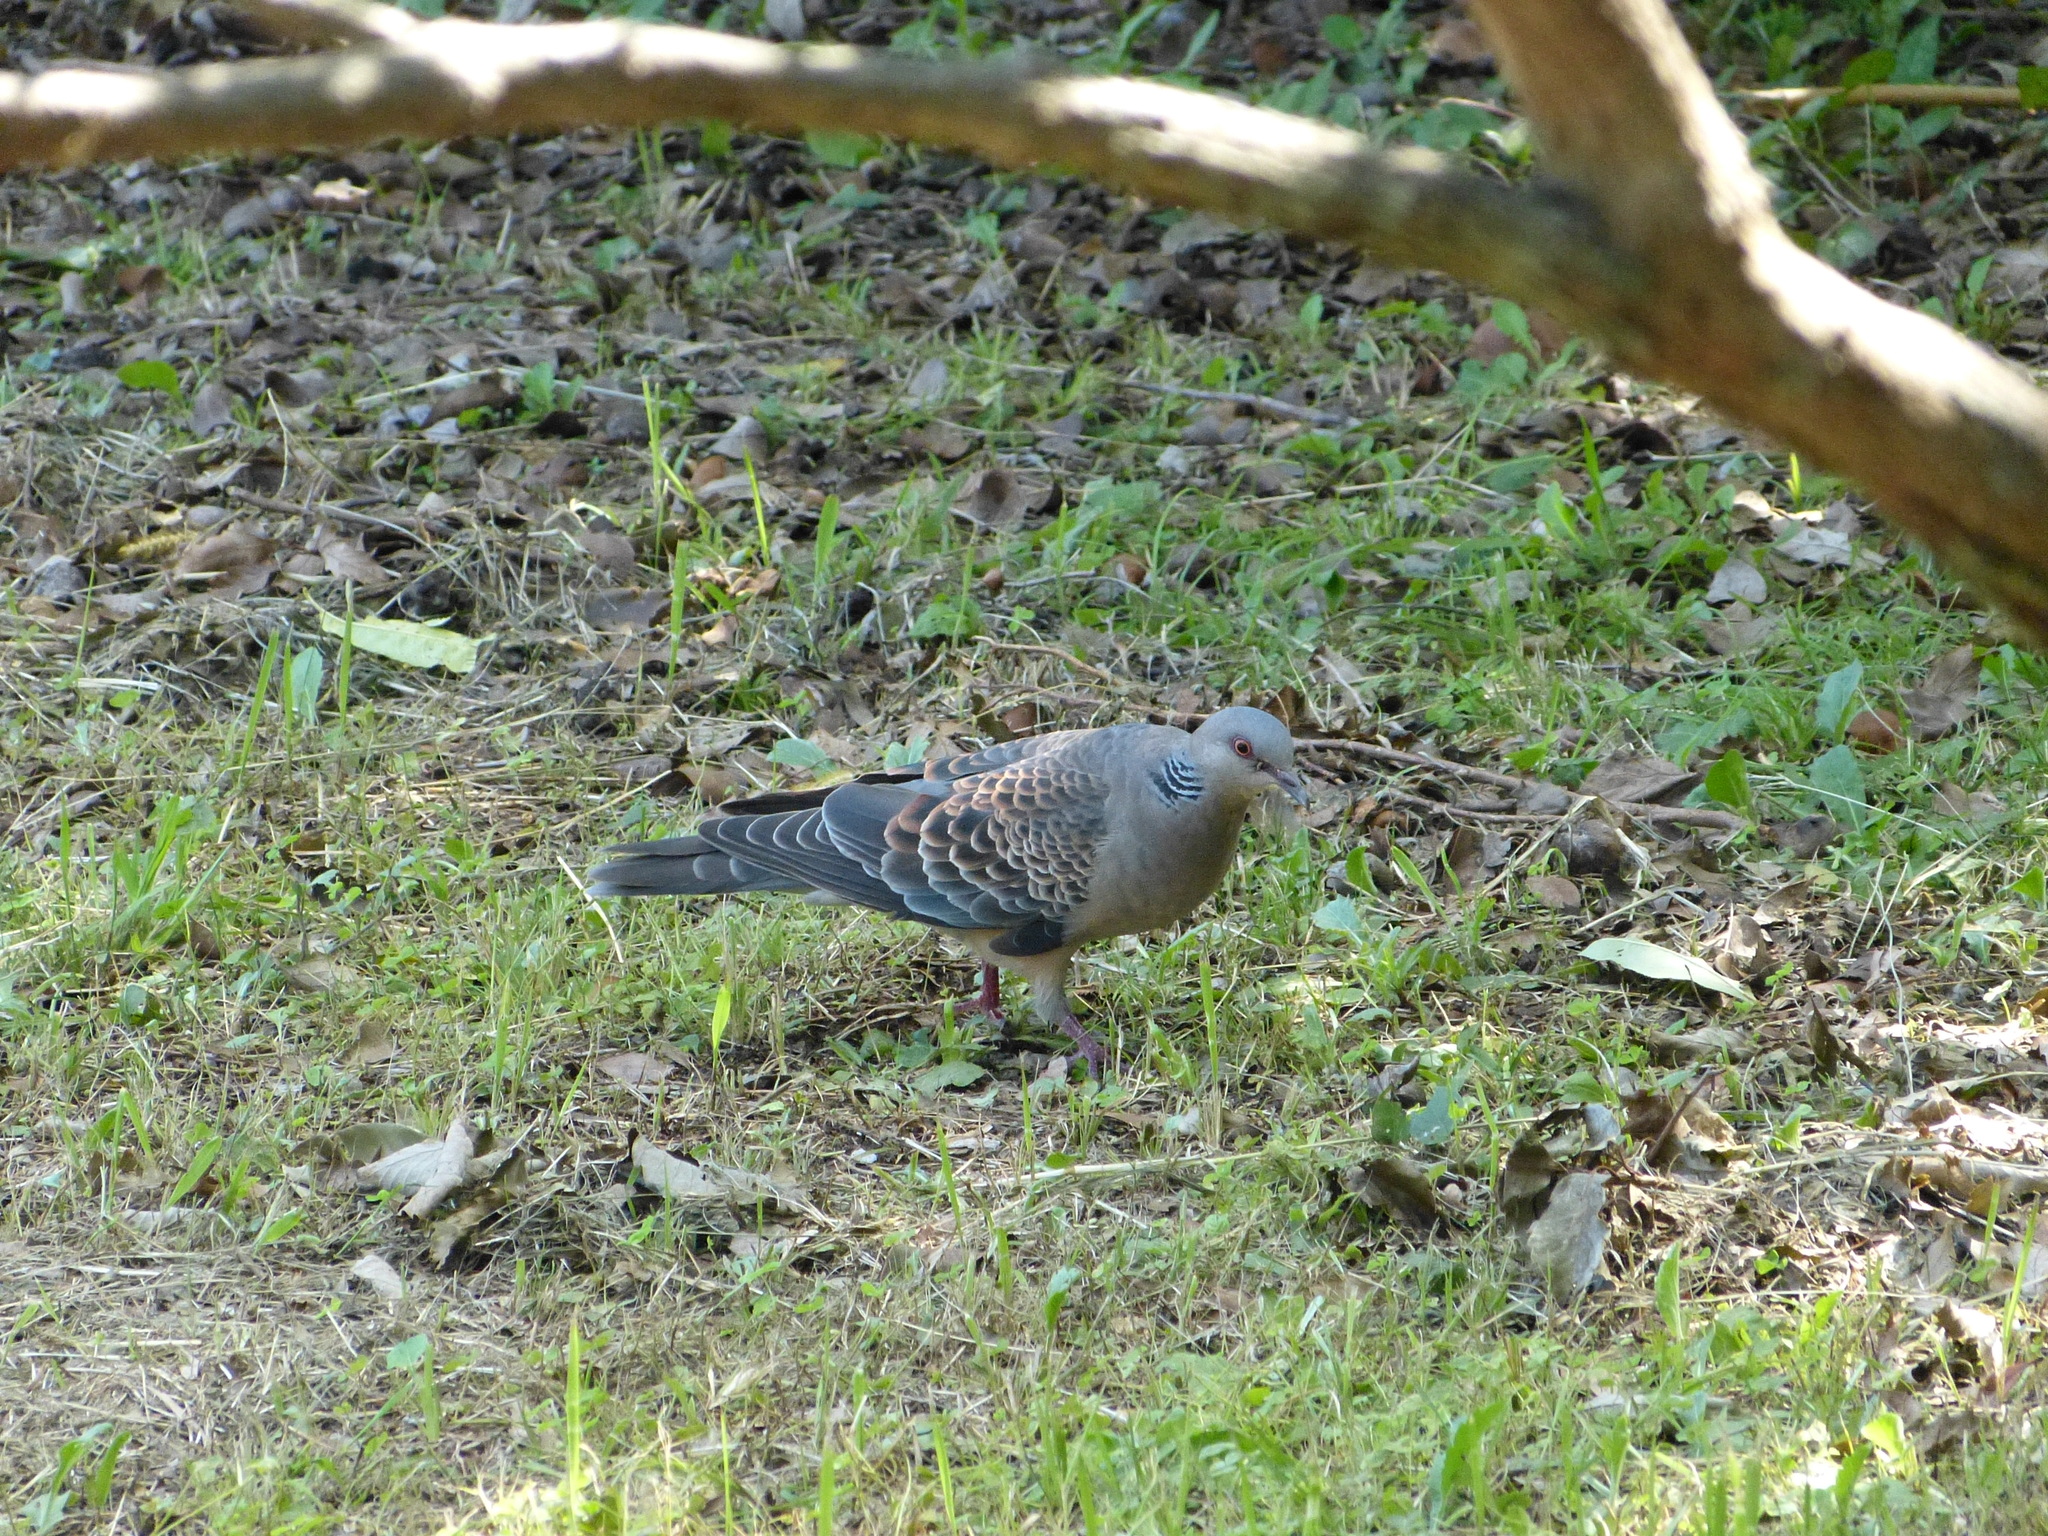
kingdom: Animalia
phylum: Chordata
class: Aves
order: Columbiformes
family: Columbidae
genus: Streptopelia
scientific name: Streptopelia orientalis
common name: Oriental turtle dove
